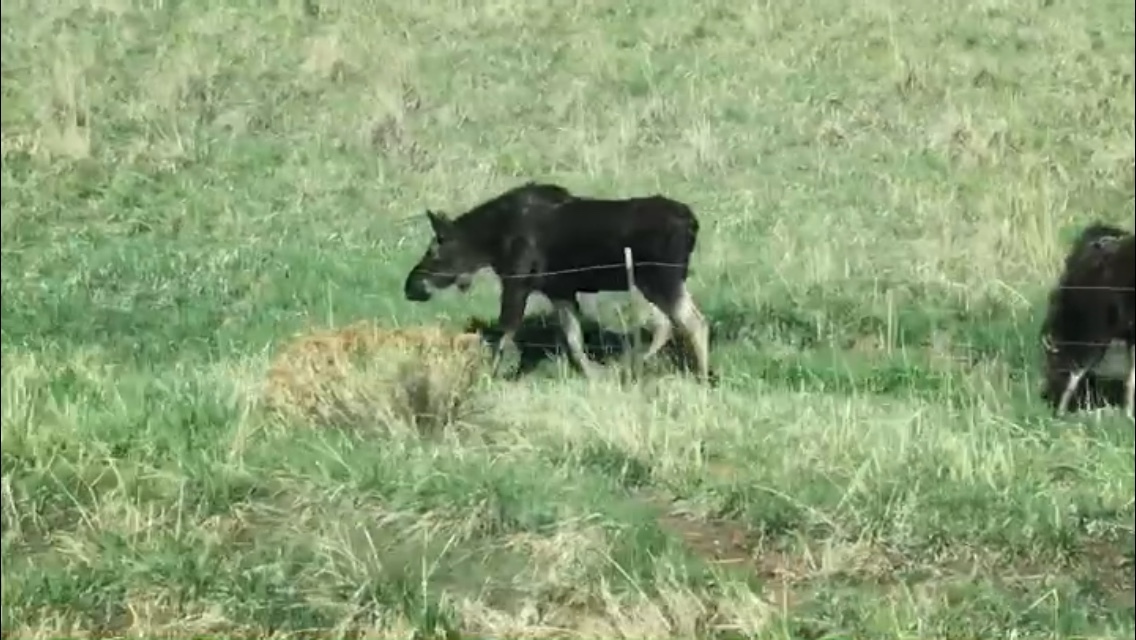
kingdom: Animalia
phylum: Chordata
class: Mammalia
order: Artiodactyla
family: Cervidae
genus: Alces
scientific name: Alces alces
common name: Moose
